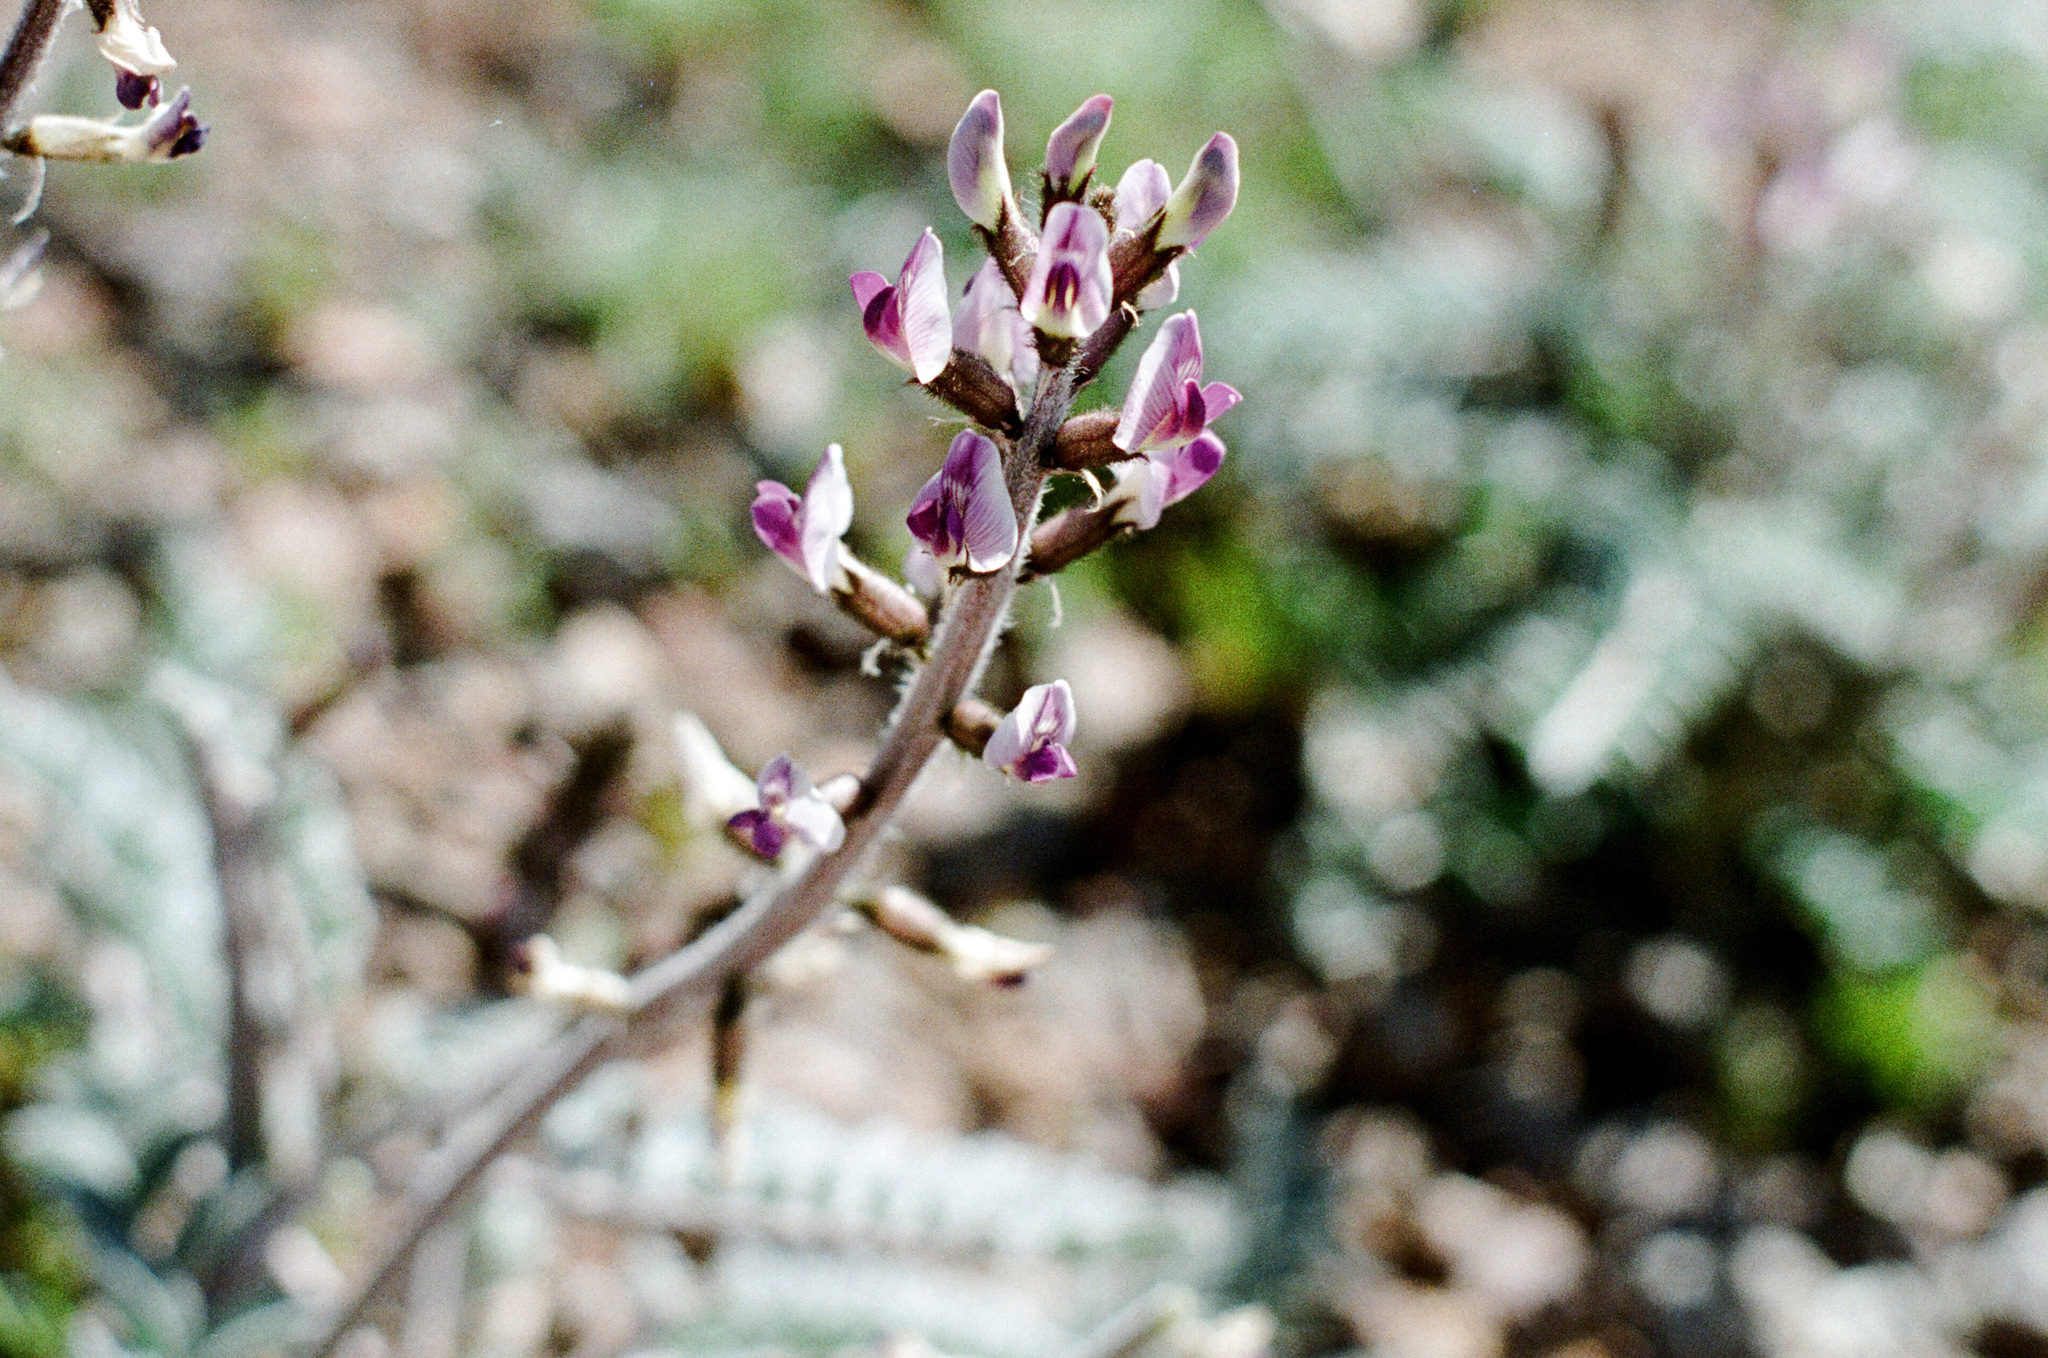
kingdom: Plantae
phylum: Tracheophyta
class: Magnoliopsida
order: Fabales
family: Fabaceae
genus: Astragalus
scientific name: Astragalus layneae
